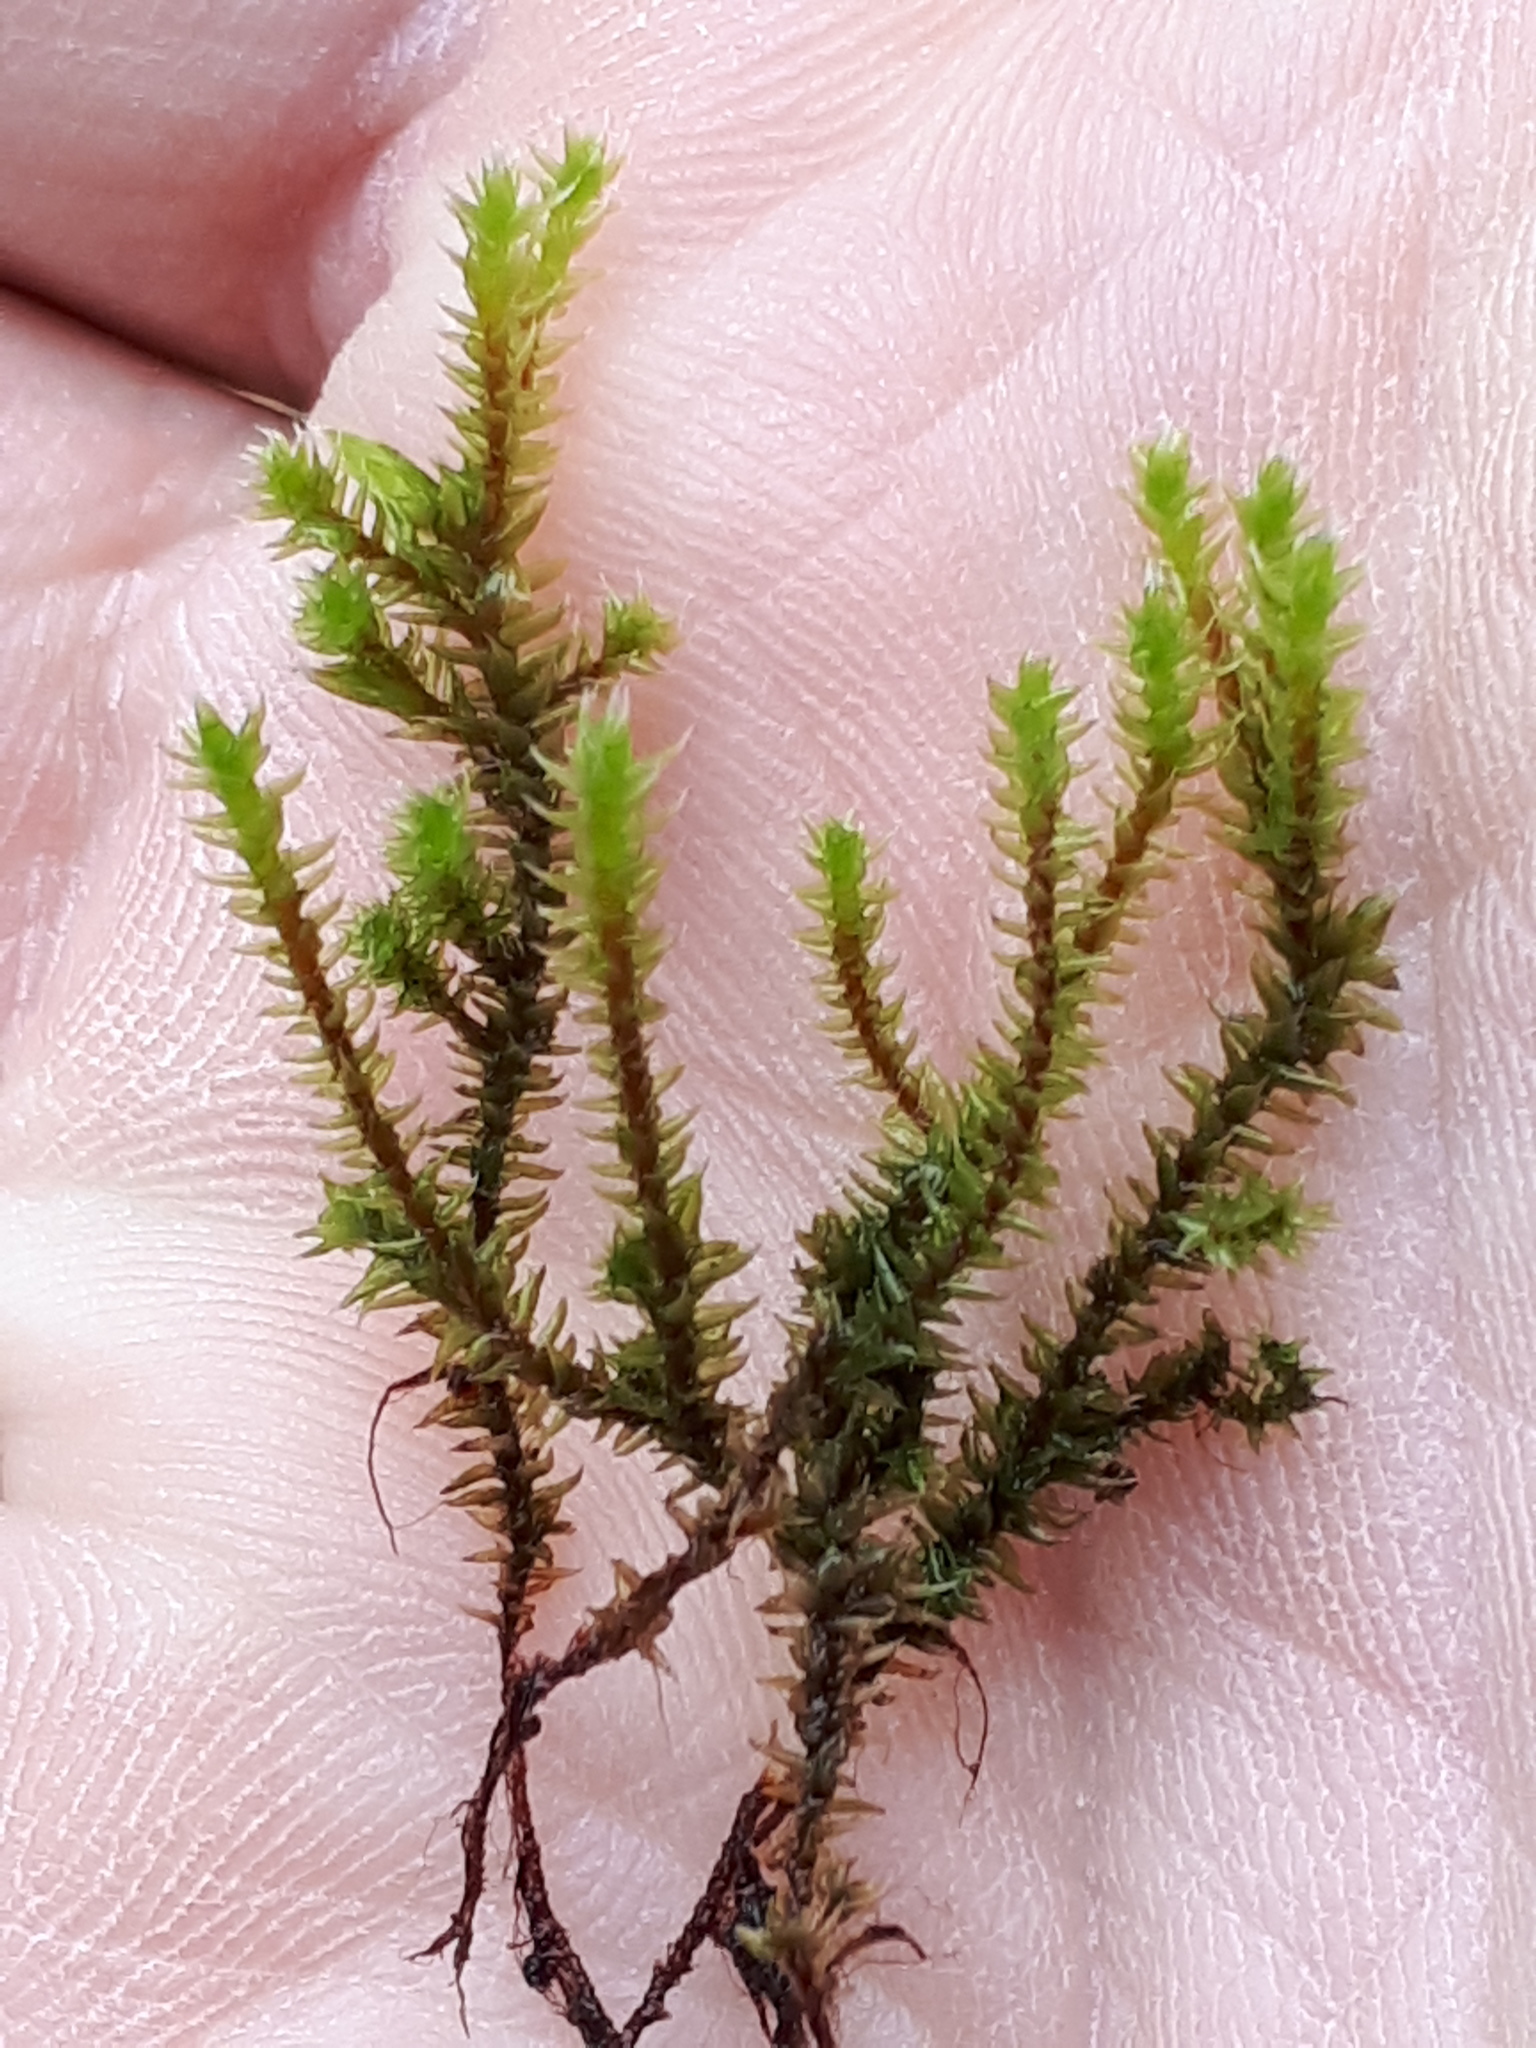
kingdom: Plantae
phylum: Bryophyta
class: Bryopsida
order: Hedwigiales
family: Hedwigiaceae
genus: Hedwigia
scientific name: Hedwigia ciliata
